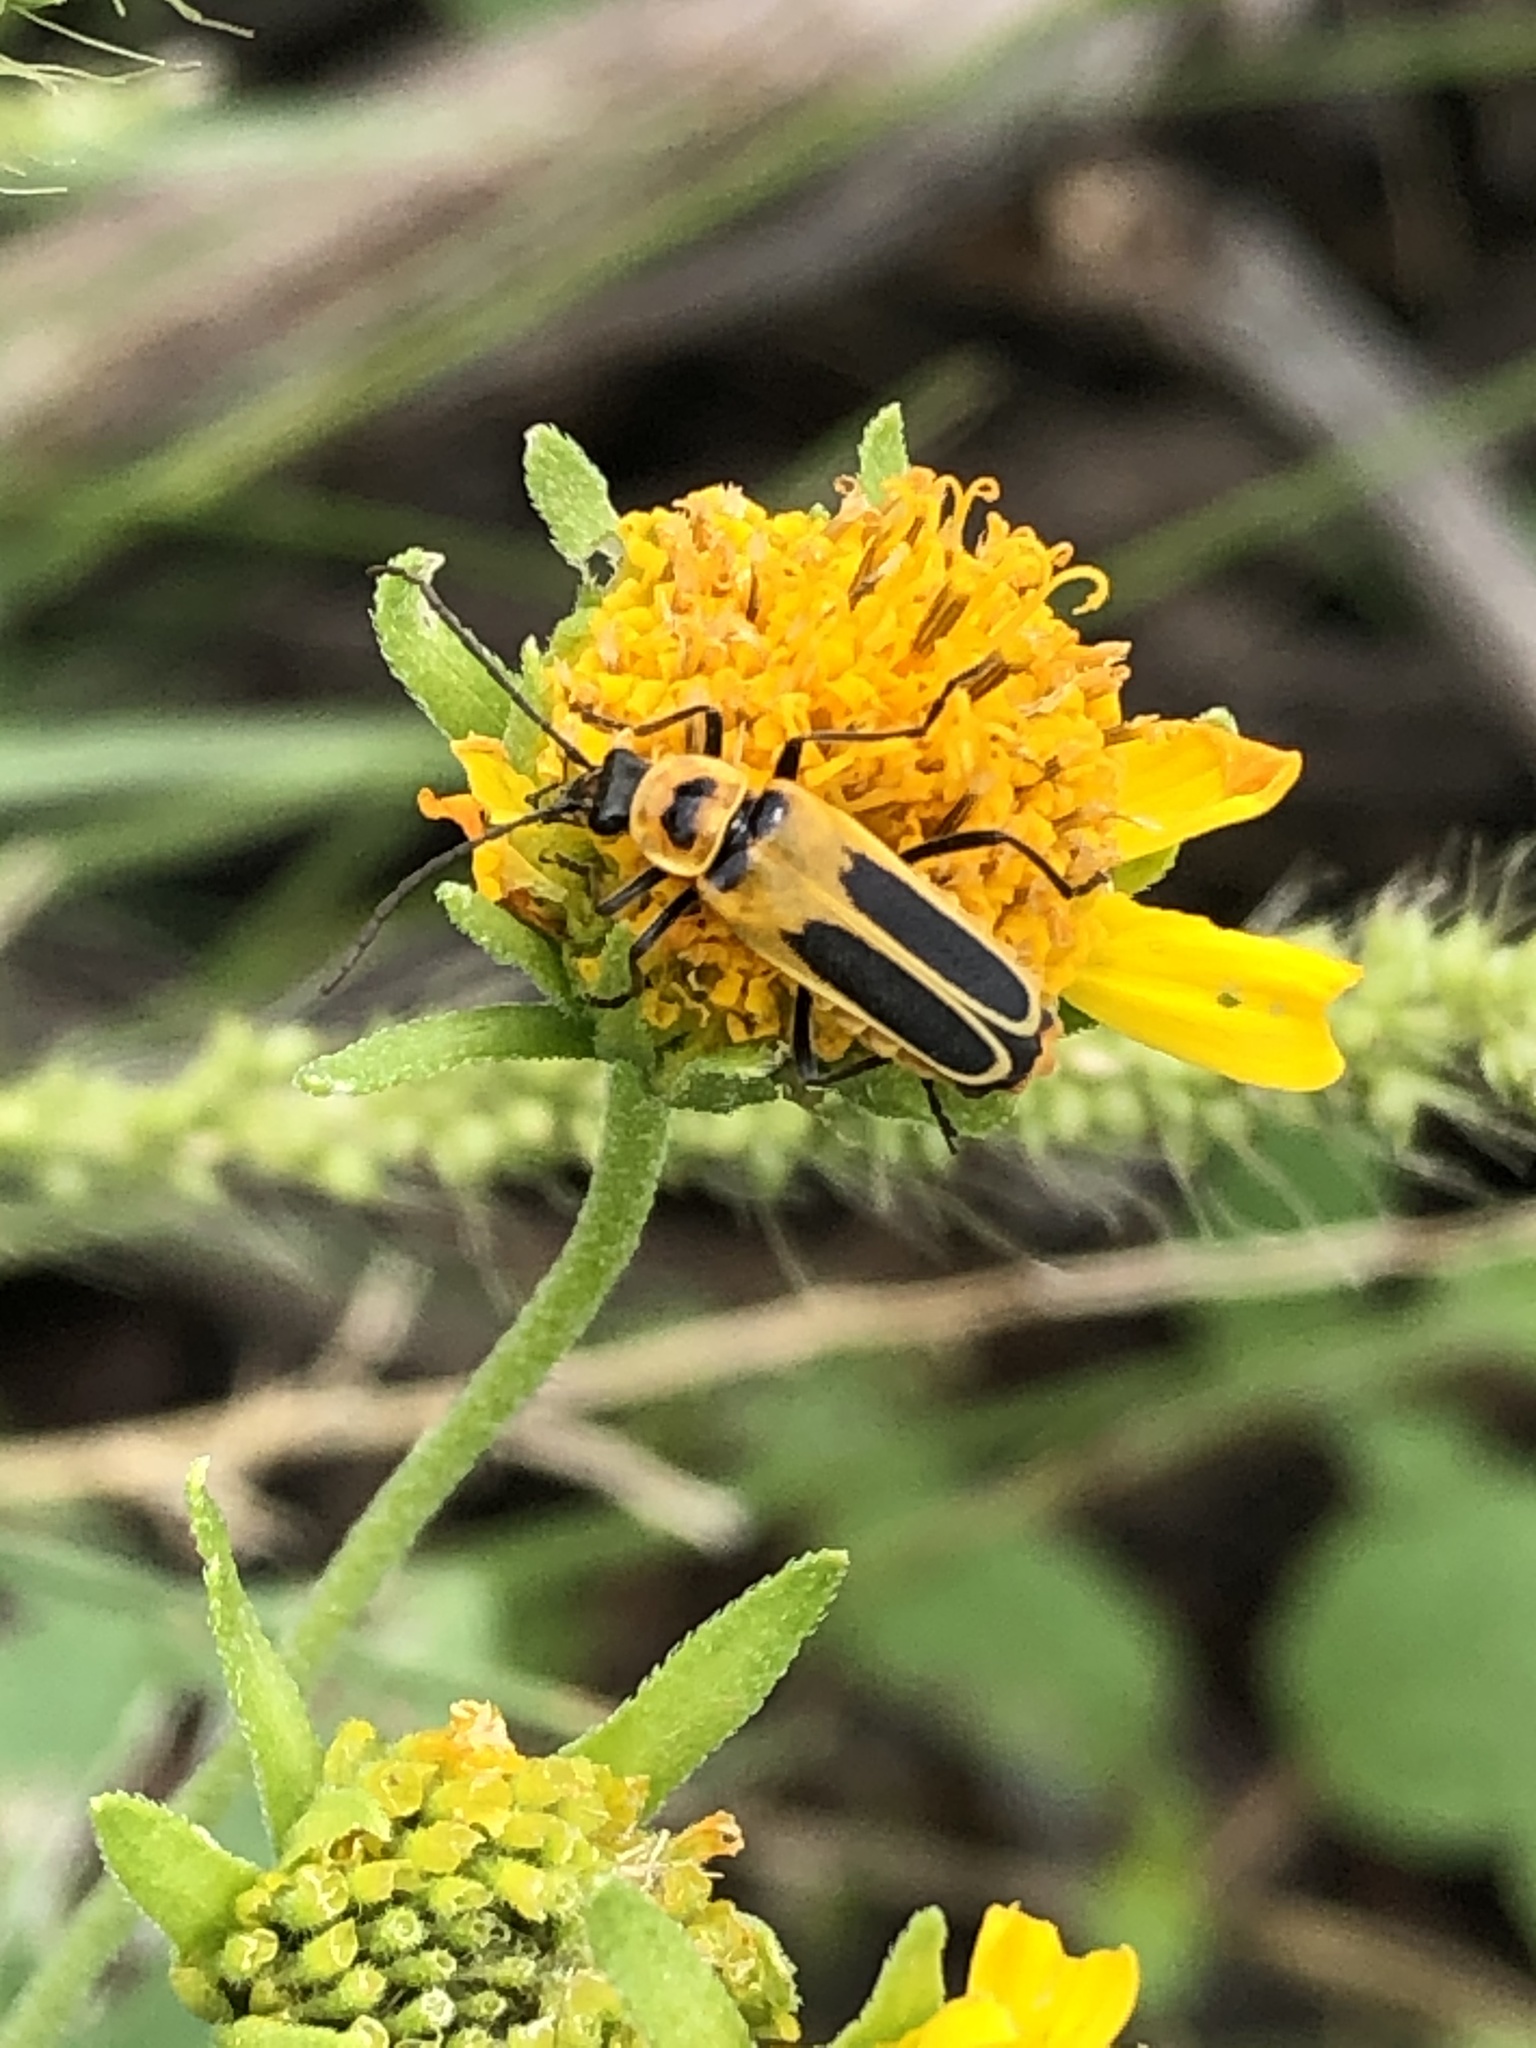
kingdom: Animalia
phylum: Arthropoda
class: Insecta
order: Coleoptera
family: Cantharidae
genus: Chauliognathus
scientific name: Chauliognathus lewisi
